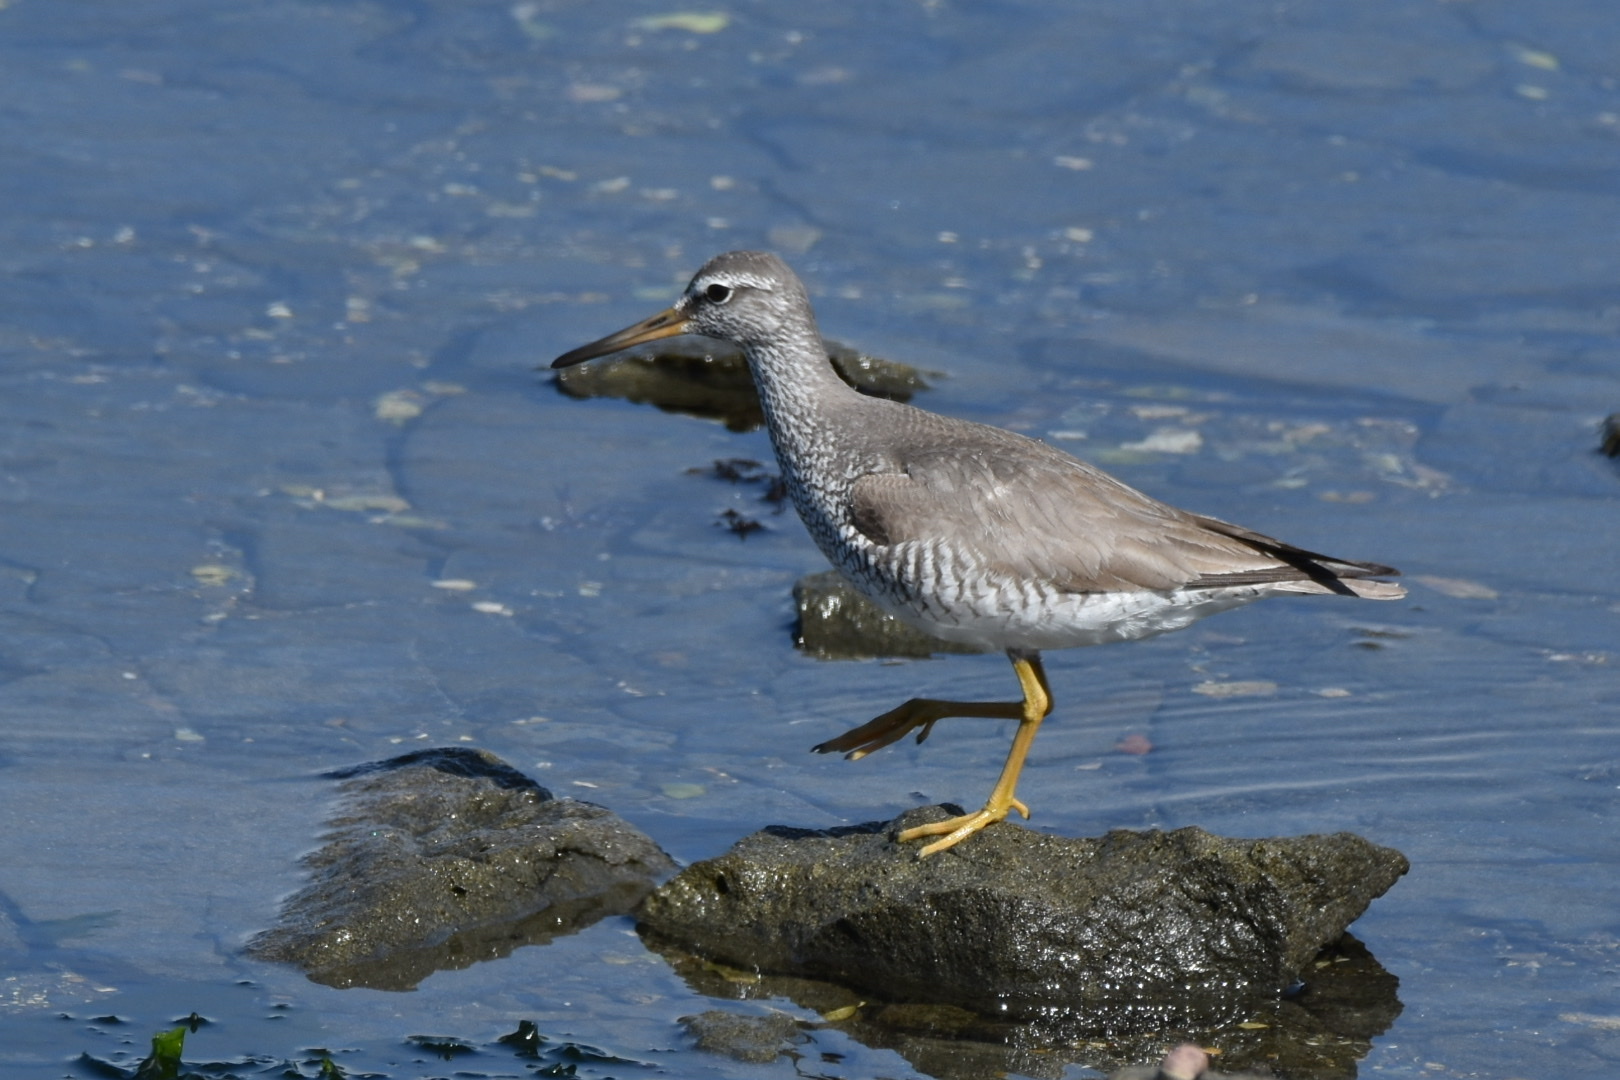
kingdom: Animalia
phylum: Chordata
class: Aves
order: Charadriiformes
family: Scolopacidae
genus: Tringa
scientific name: Tringa brevipes
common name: Grey-tailed tattler
